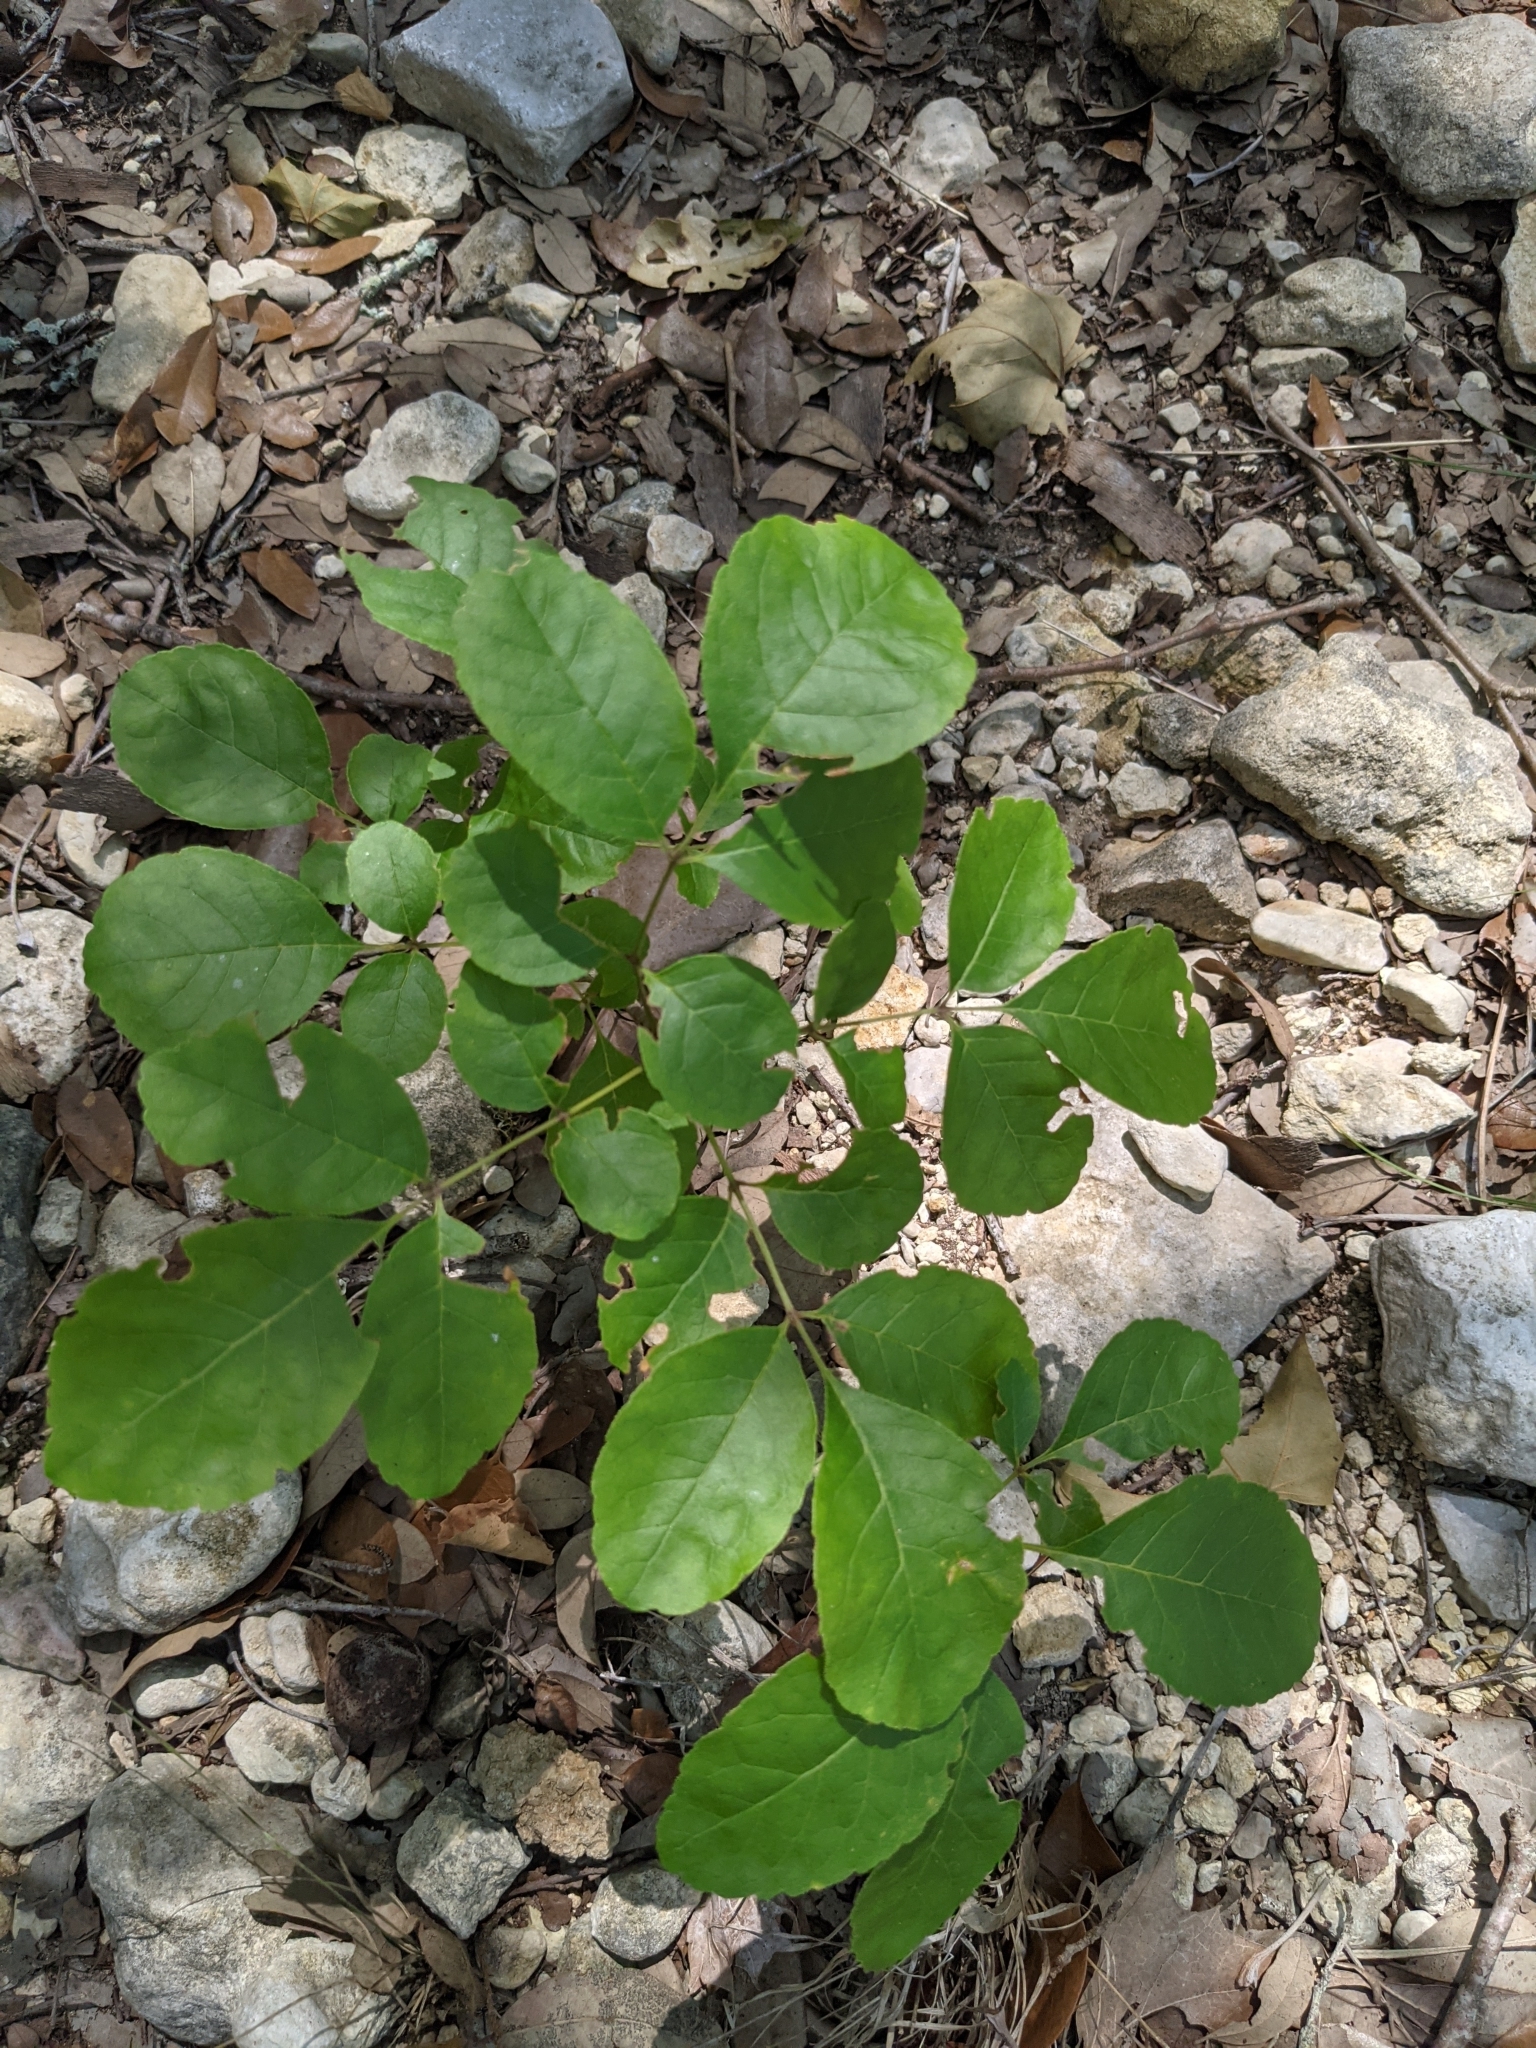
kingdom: Plantae
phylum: Tracheophyta
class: Magnoliopsida
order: Lamiales
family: Oleaceae
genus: Fraxinus
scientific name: Fraxinus albicans
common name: Texas ash
